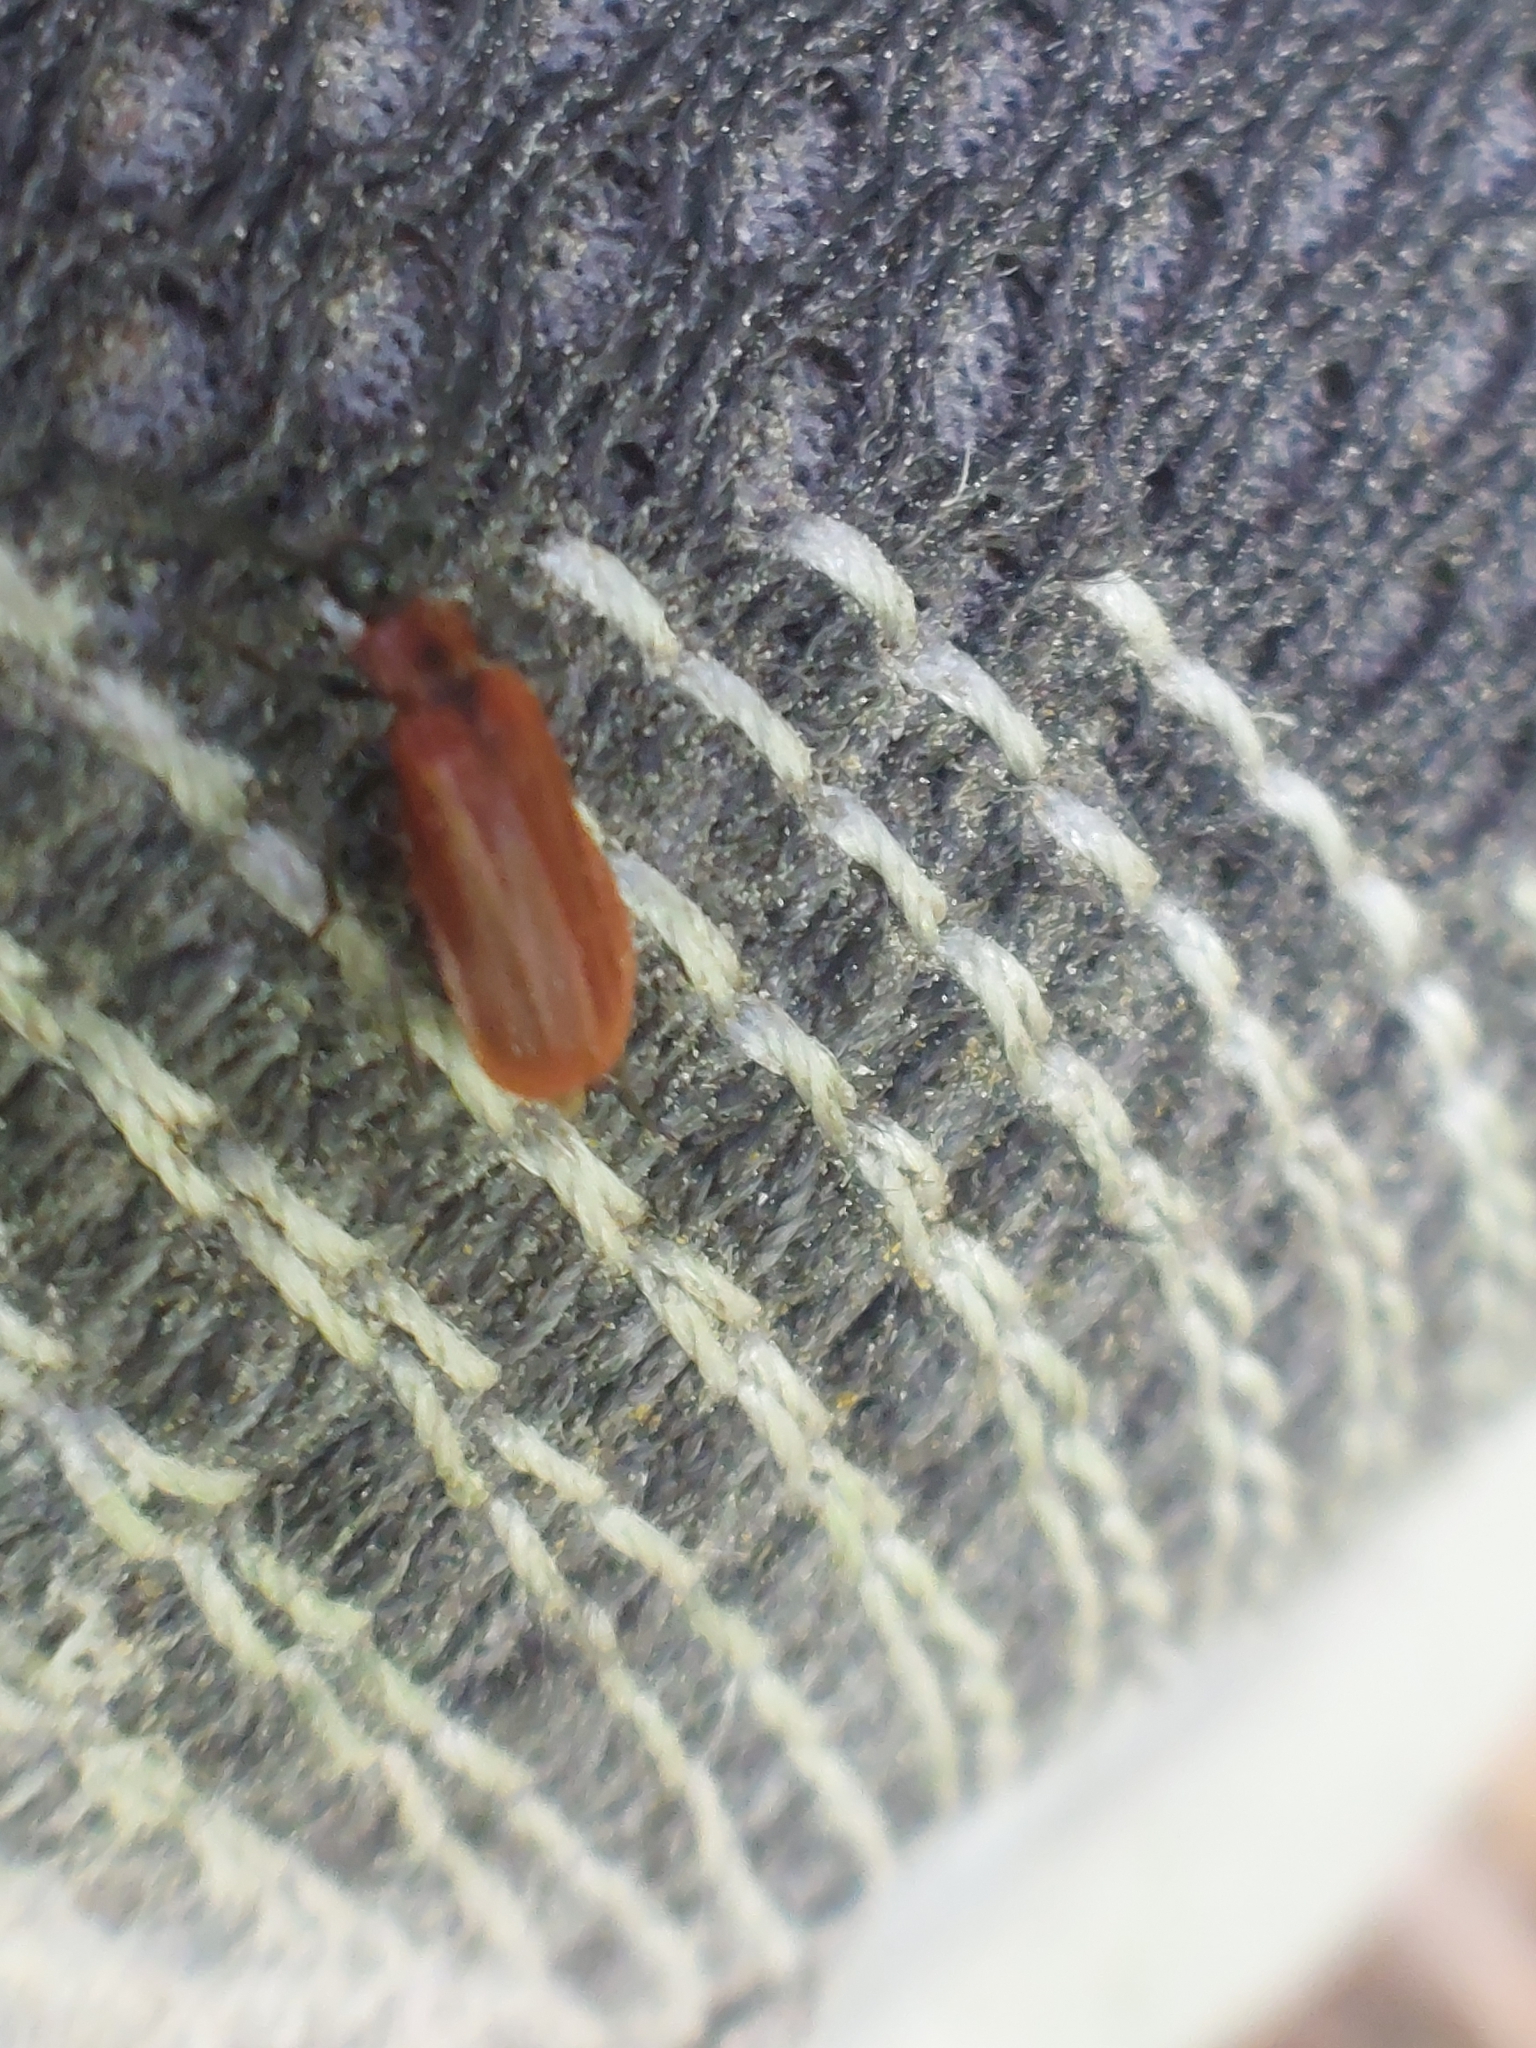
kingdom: Animalia
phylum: Arthropoda
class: Insecta
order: Coleoptera
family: Pyrochroidae
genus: Schizotus
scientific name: Schizotus pectinicornis
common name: Scarce cardinal beetle
